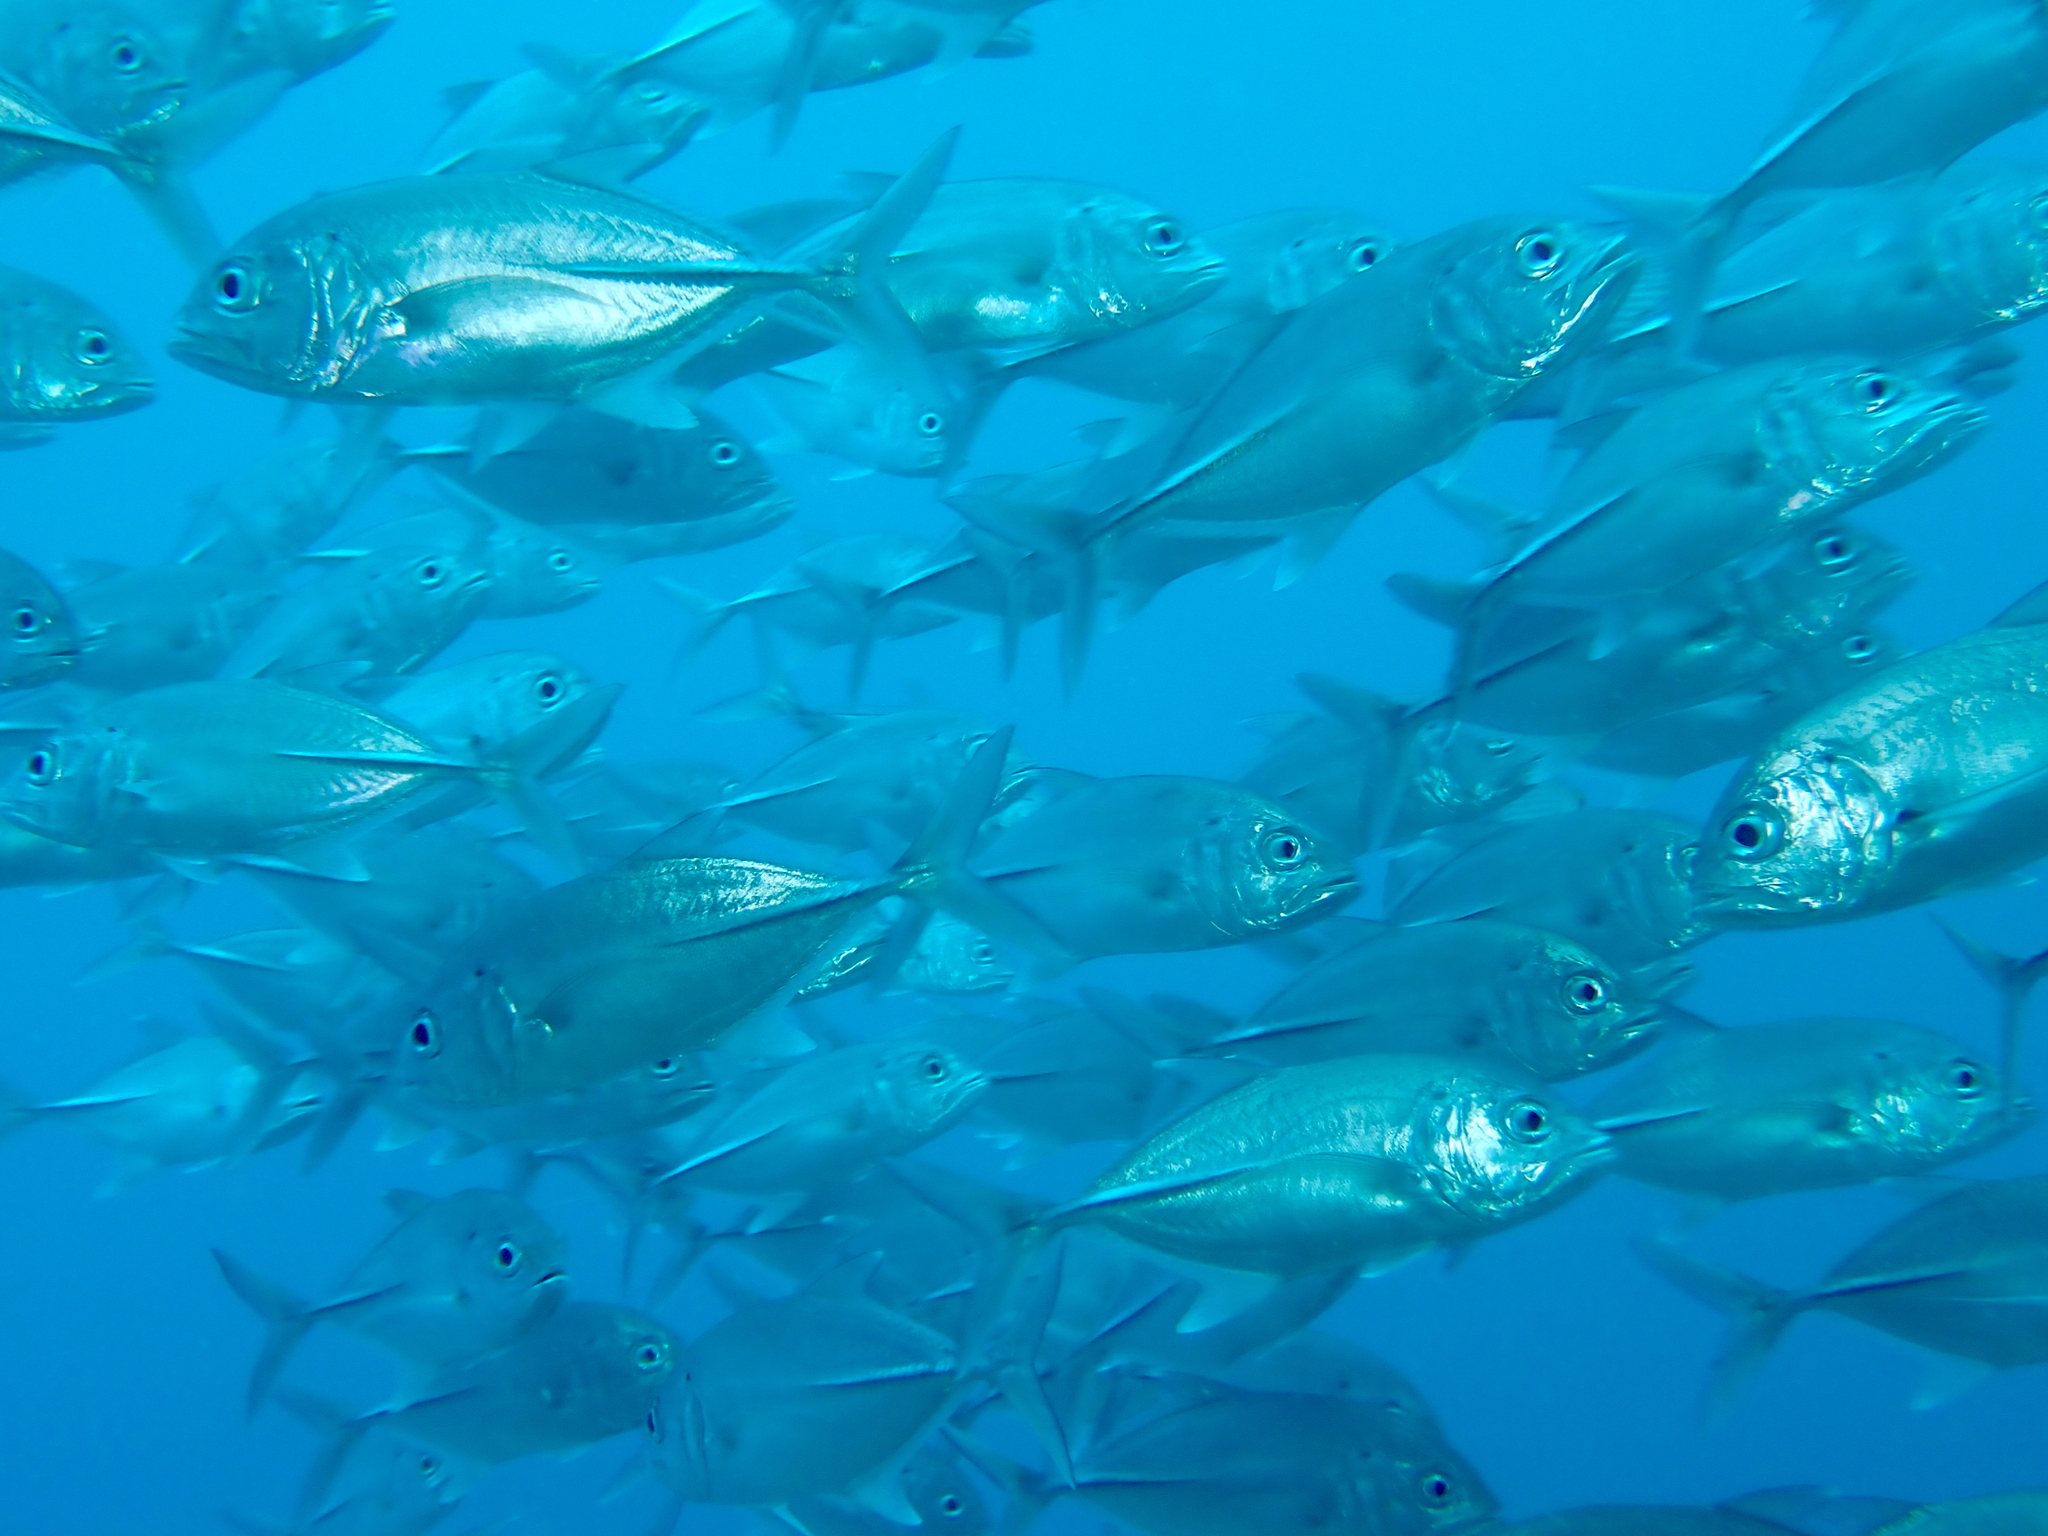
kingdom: Animalia
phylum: Chordata
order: Perciformes
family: Carangidae
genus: Caranx
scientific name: Caranx sexfasciatus
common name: Bigeye trevally
